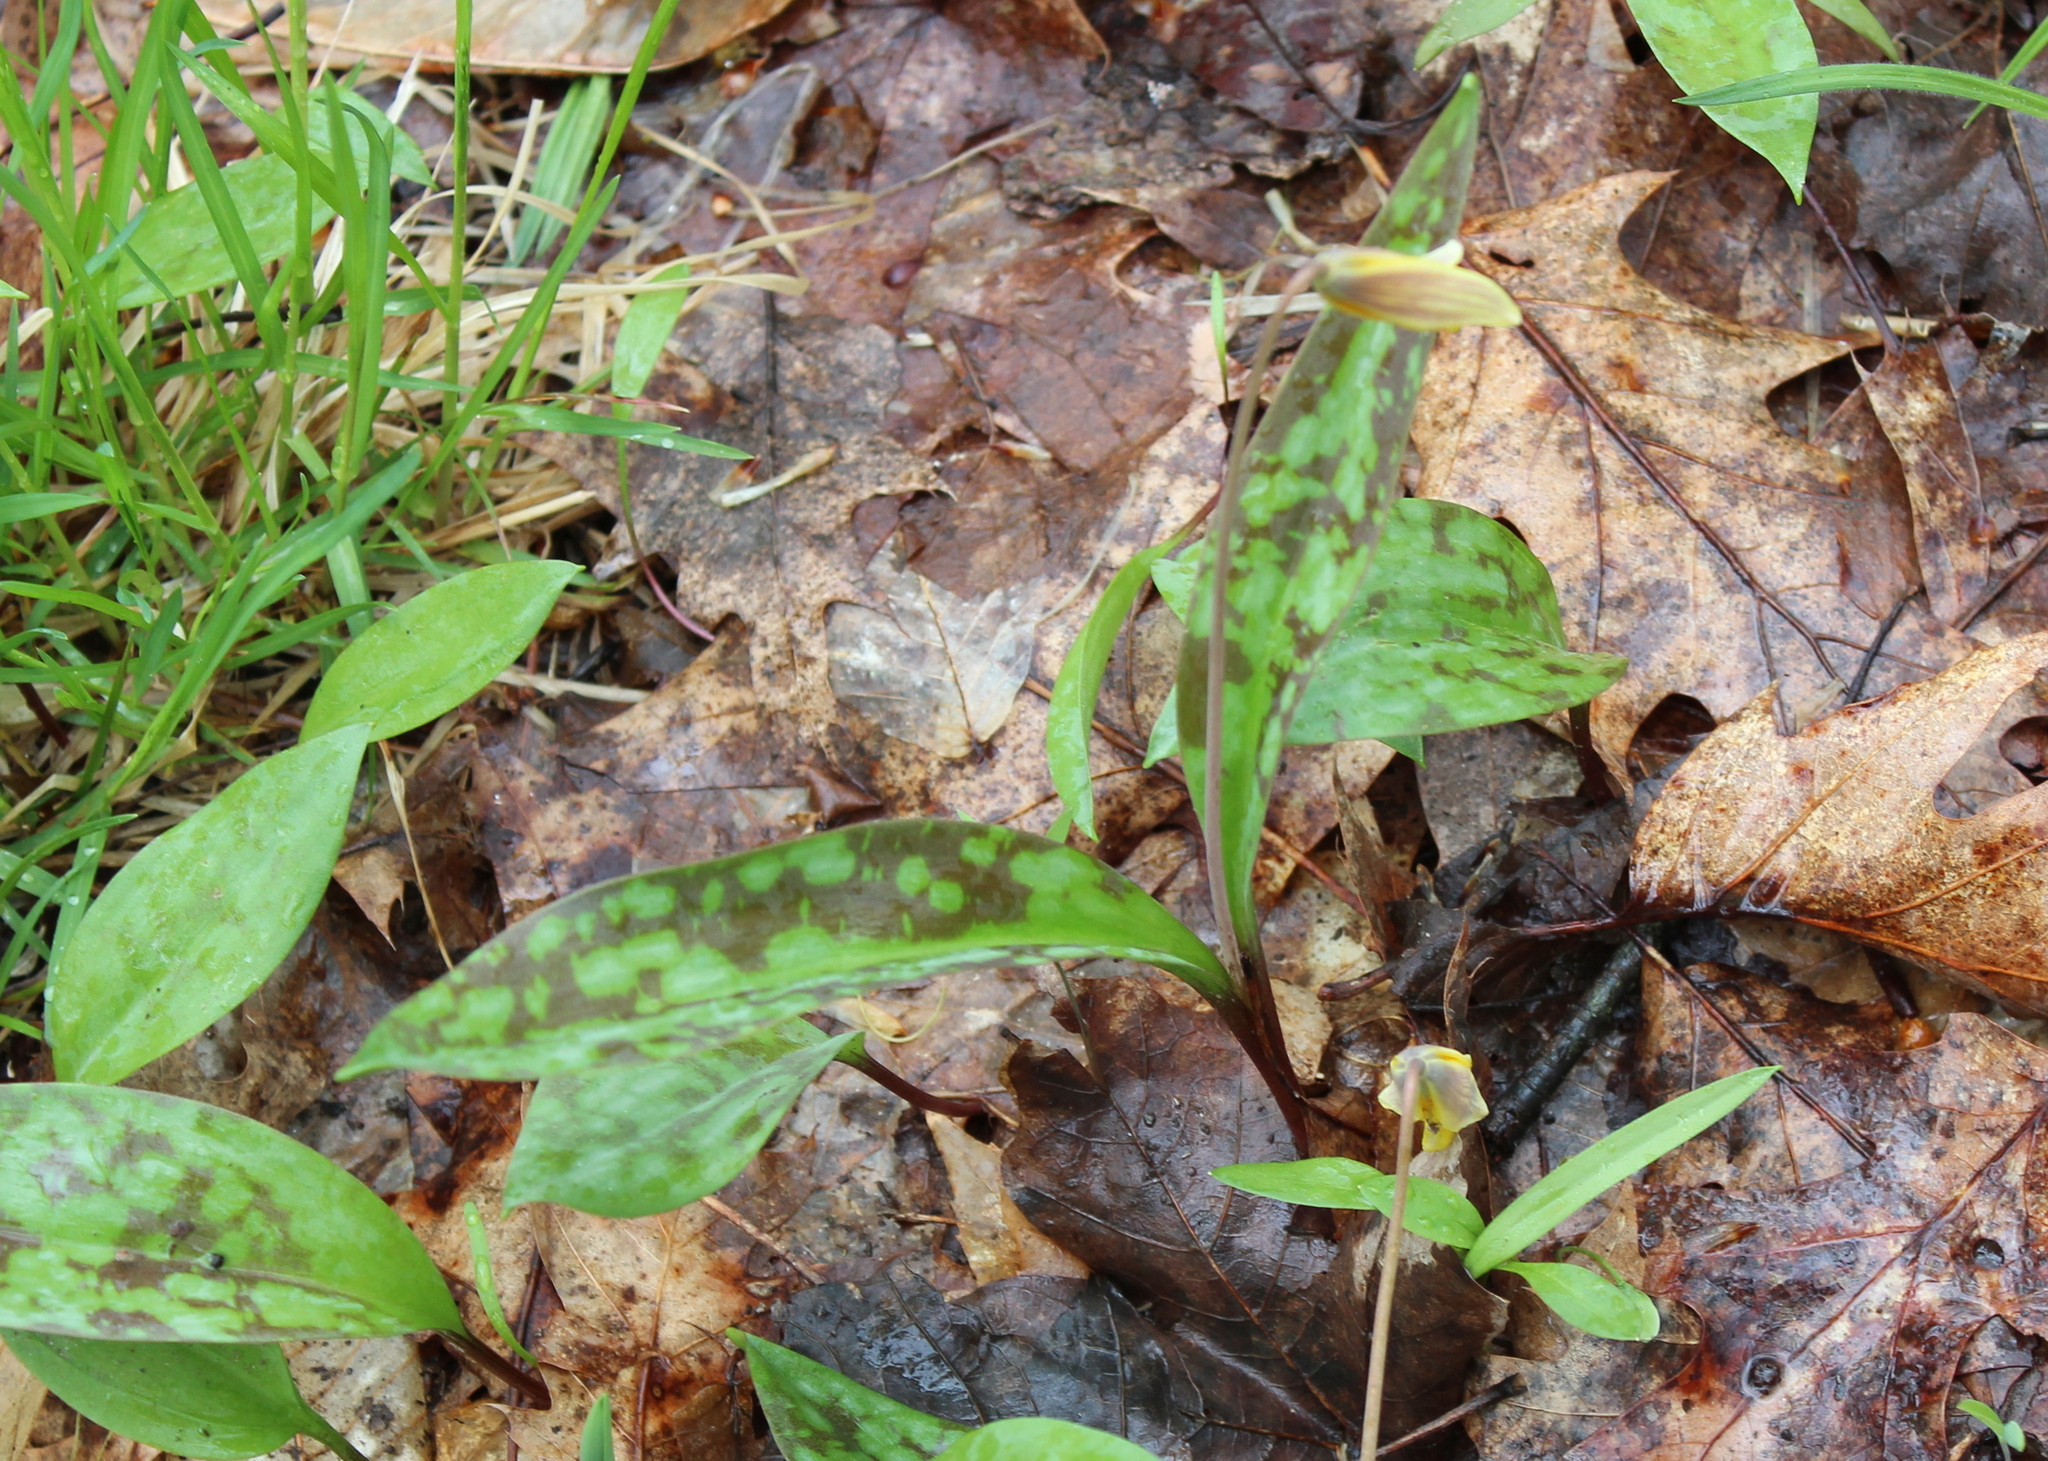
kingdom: Plantae
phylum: Tracheophyta
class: Liliopsida
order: Liliales
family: Liliaceae
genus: Erythronium
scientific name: Erythronium americanum
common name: Yellow adder's-tongue
